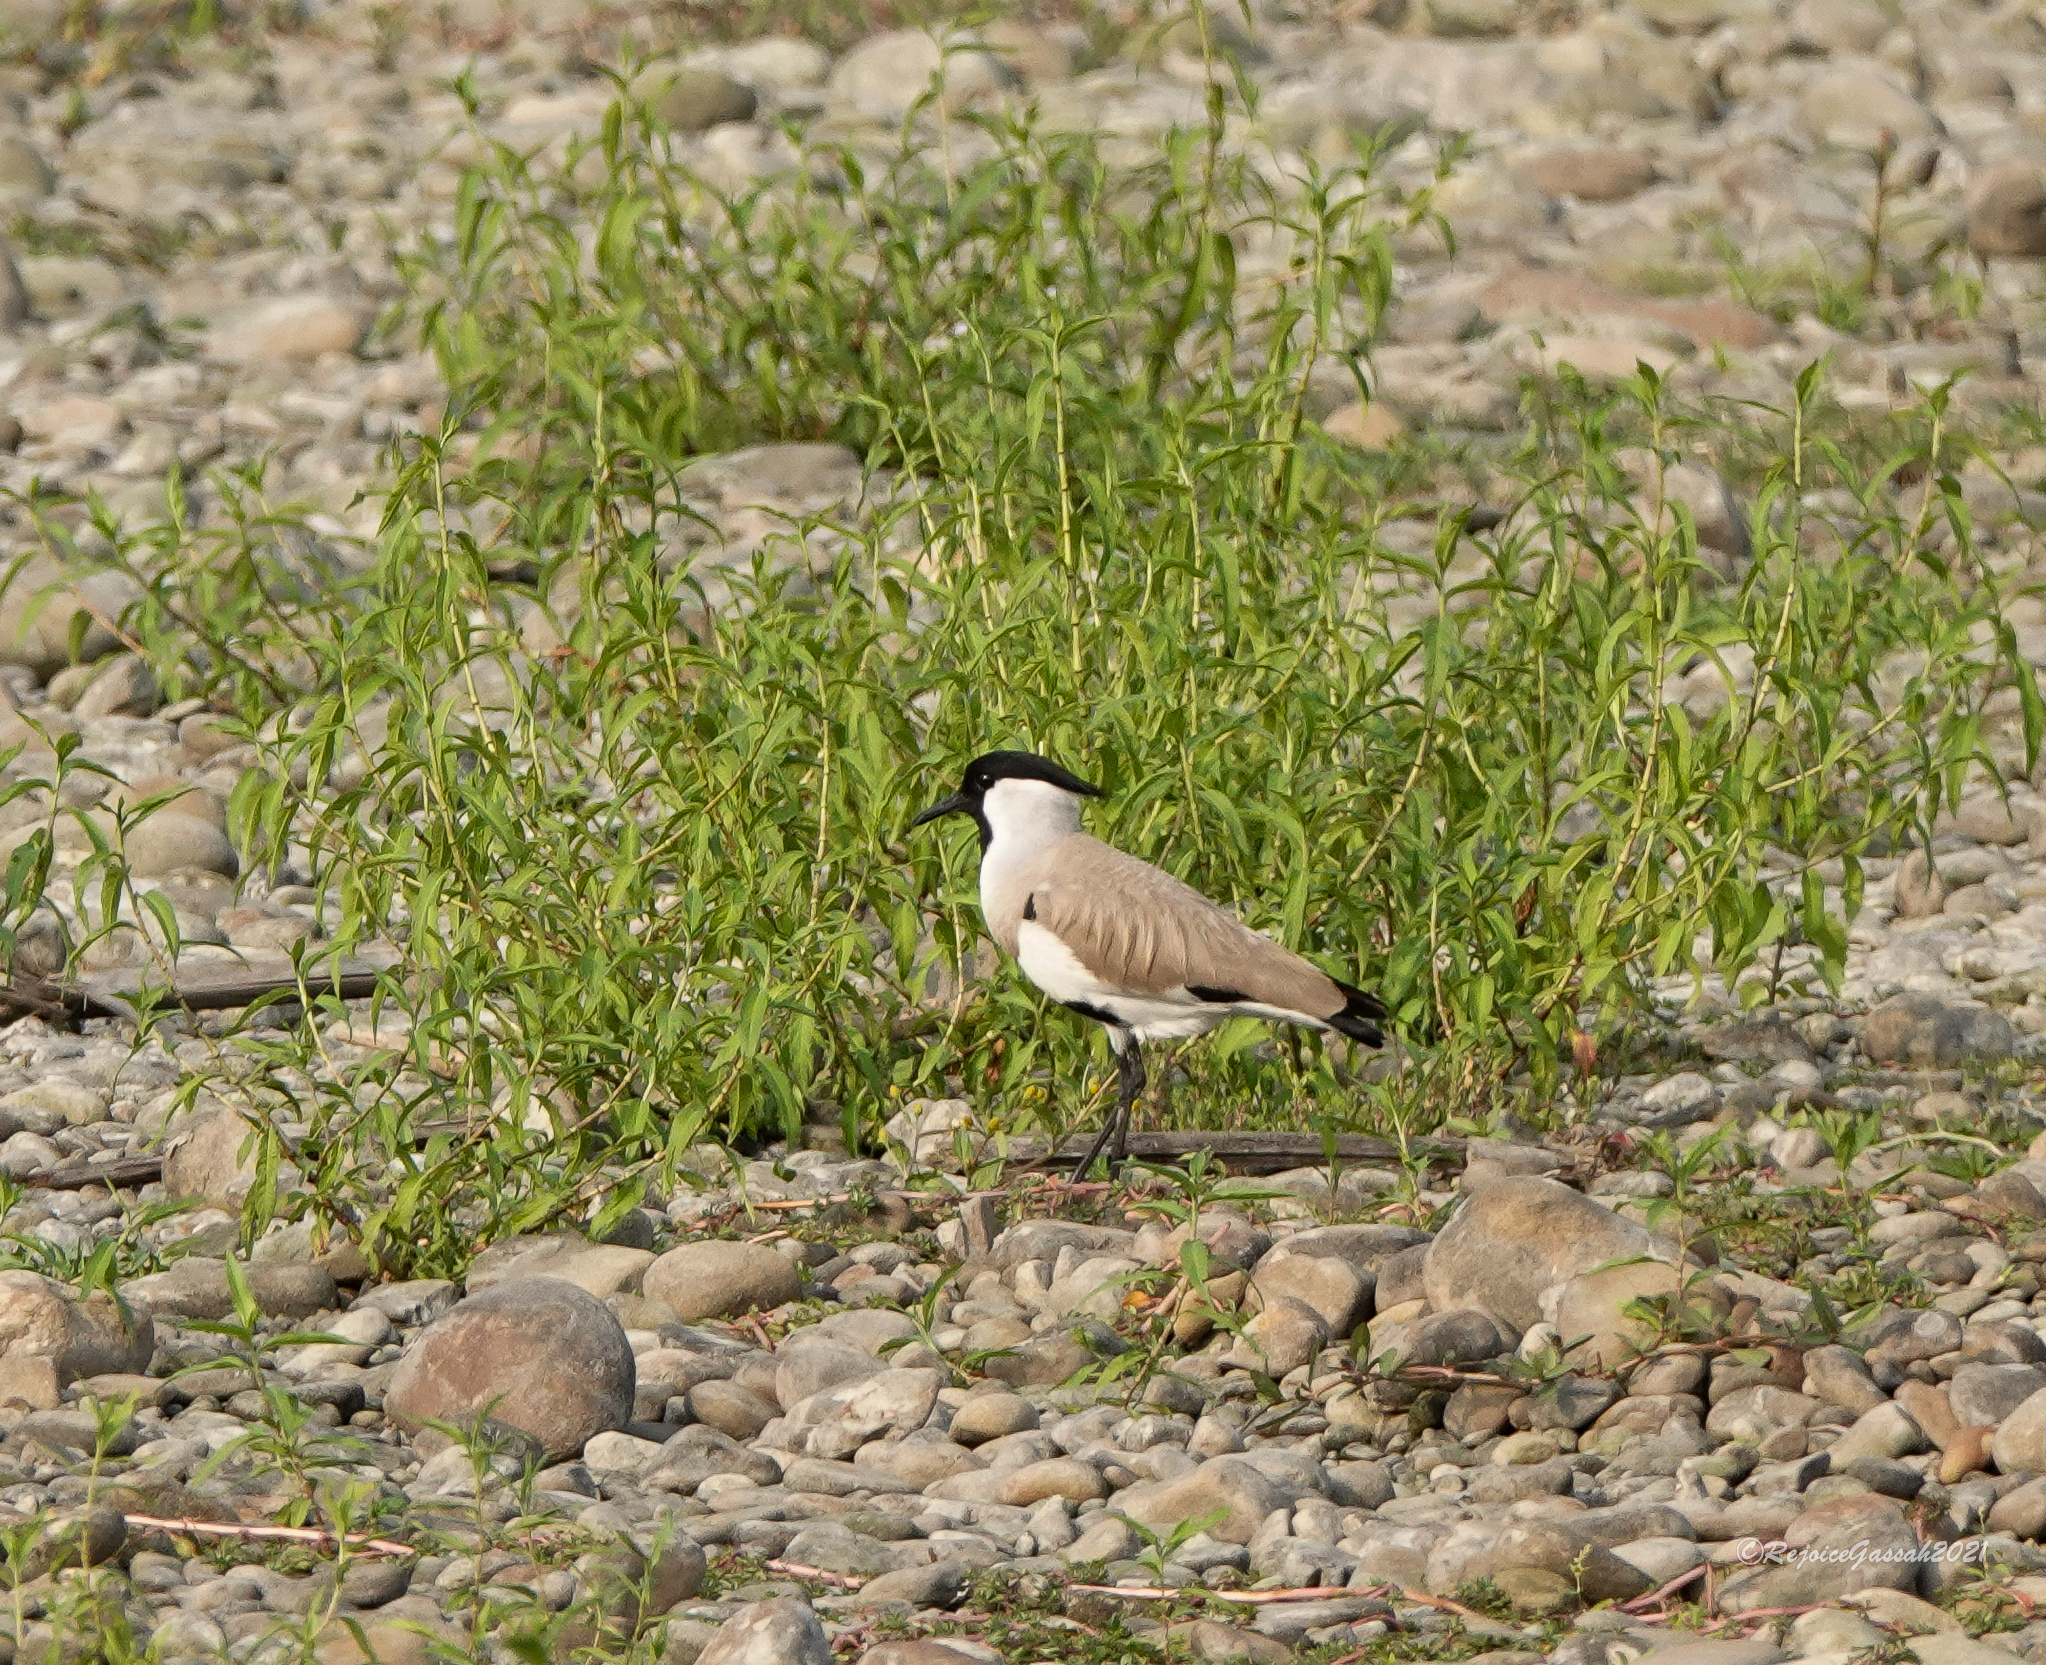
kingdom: Animalia
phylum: Chordata
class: Aves
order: Charadriiformes
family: Charadriidae
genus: Vanellus
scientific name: Vanellus duvaucelii
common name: River lapwing
